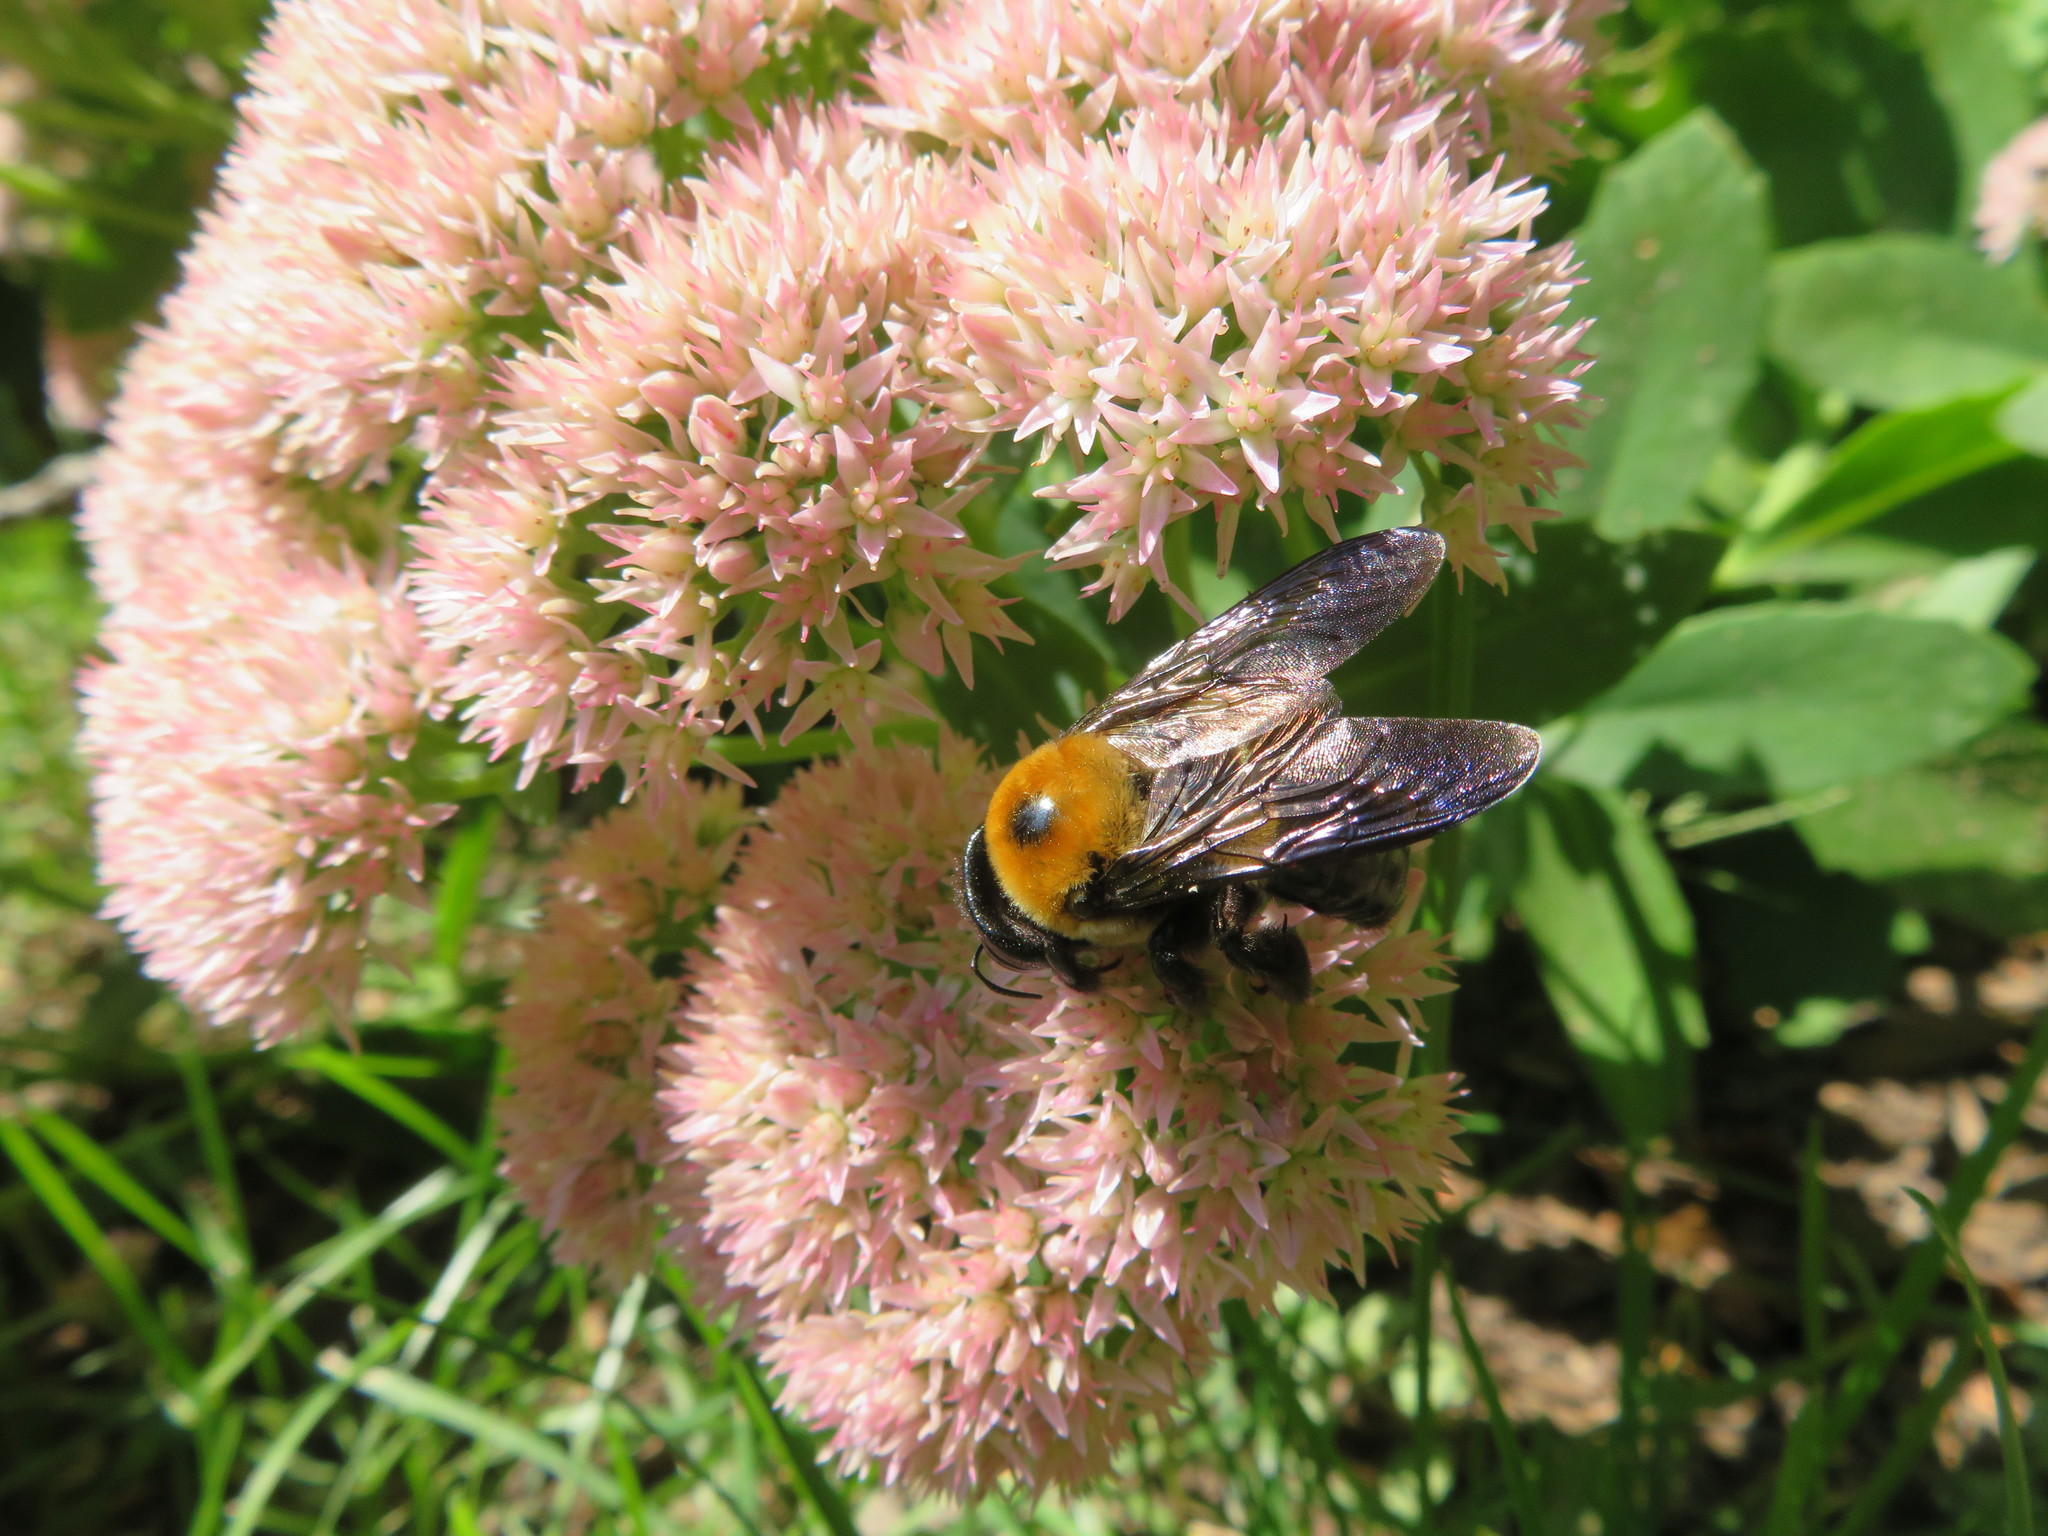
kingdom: Animalia
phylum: Arthropoda
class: Insecta
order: Hymenoptera
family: Apidae
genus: Xylocopa
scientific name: Xylocopa virginica
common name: Carpenter bee
